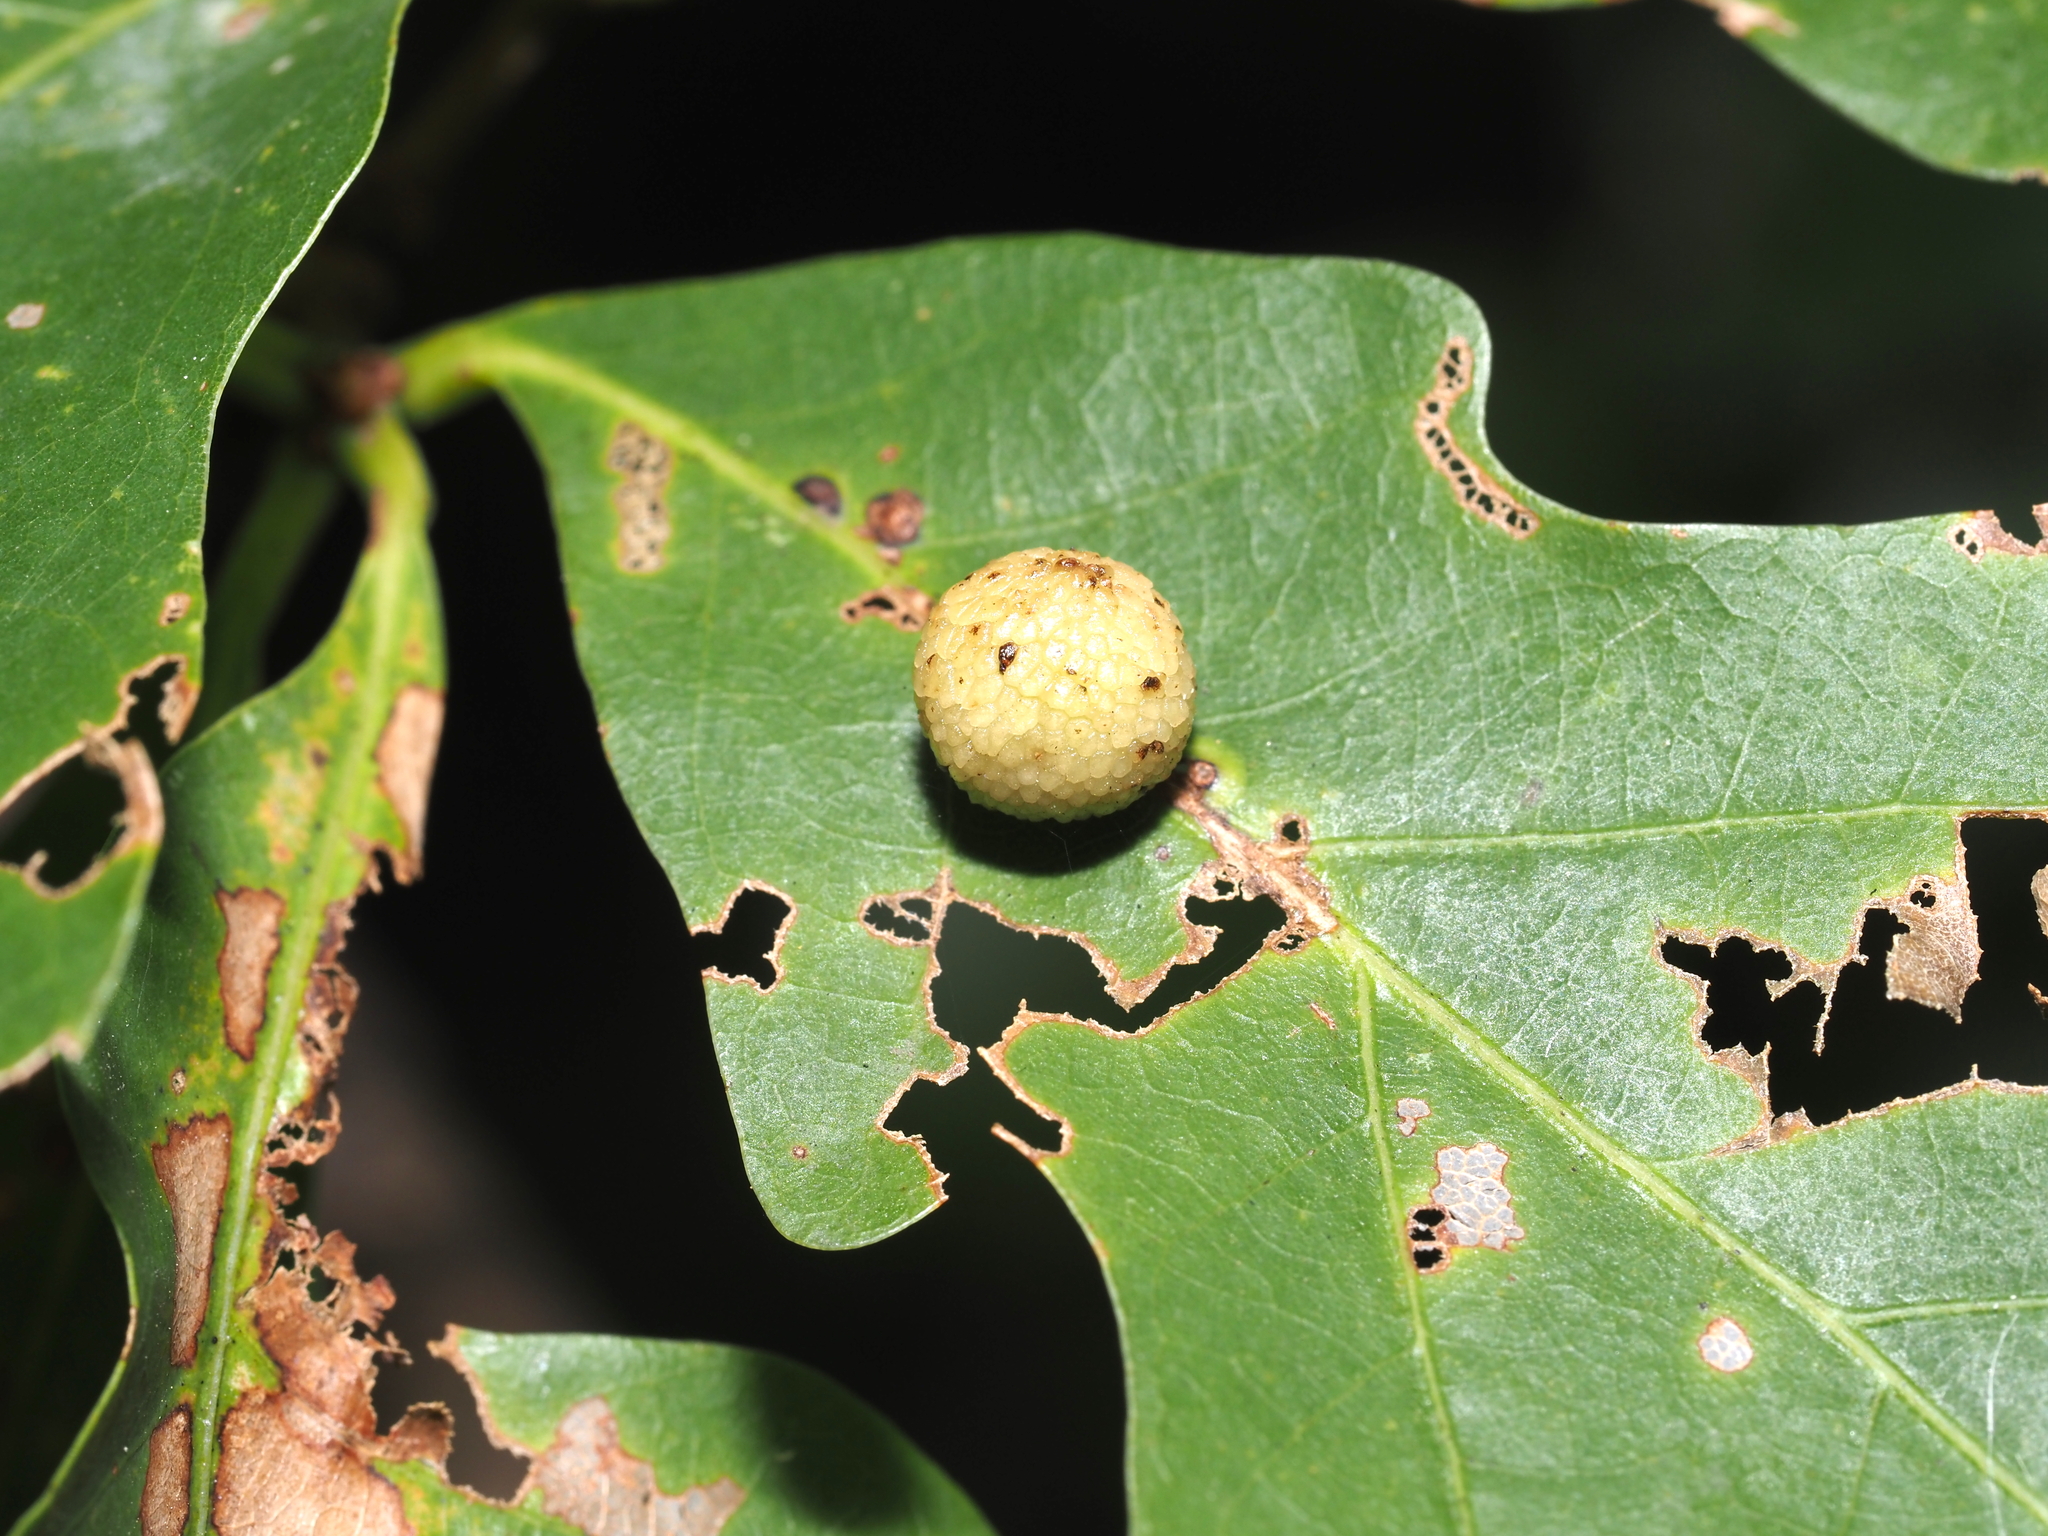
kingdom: Animalia
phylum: Arthropoda
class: Insecta
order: Hymenoptera
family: Cynipidae
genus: Acraspis
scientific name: Acraspis
